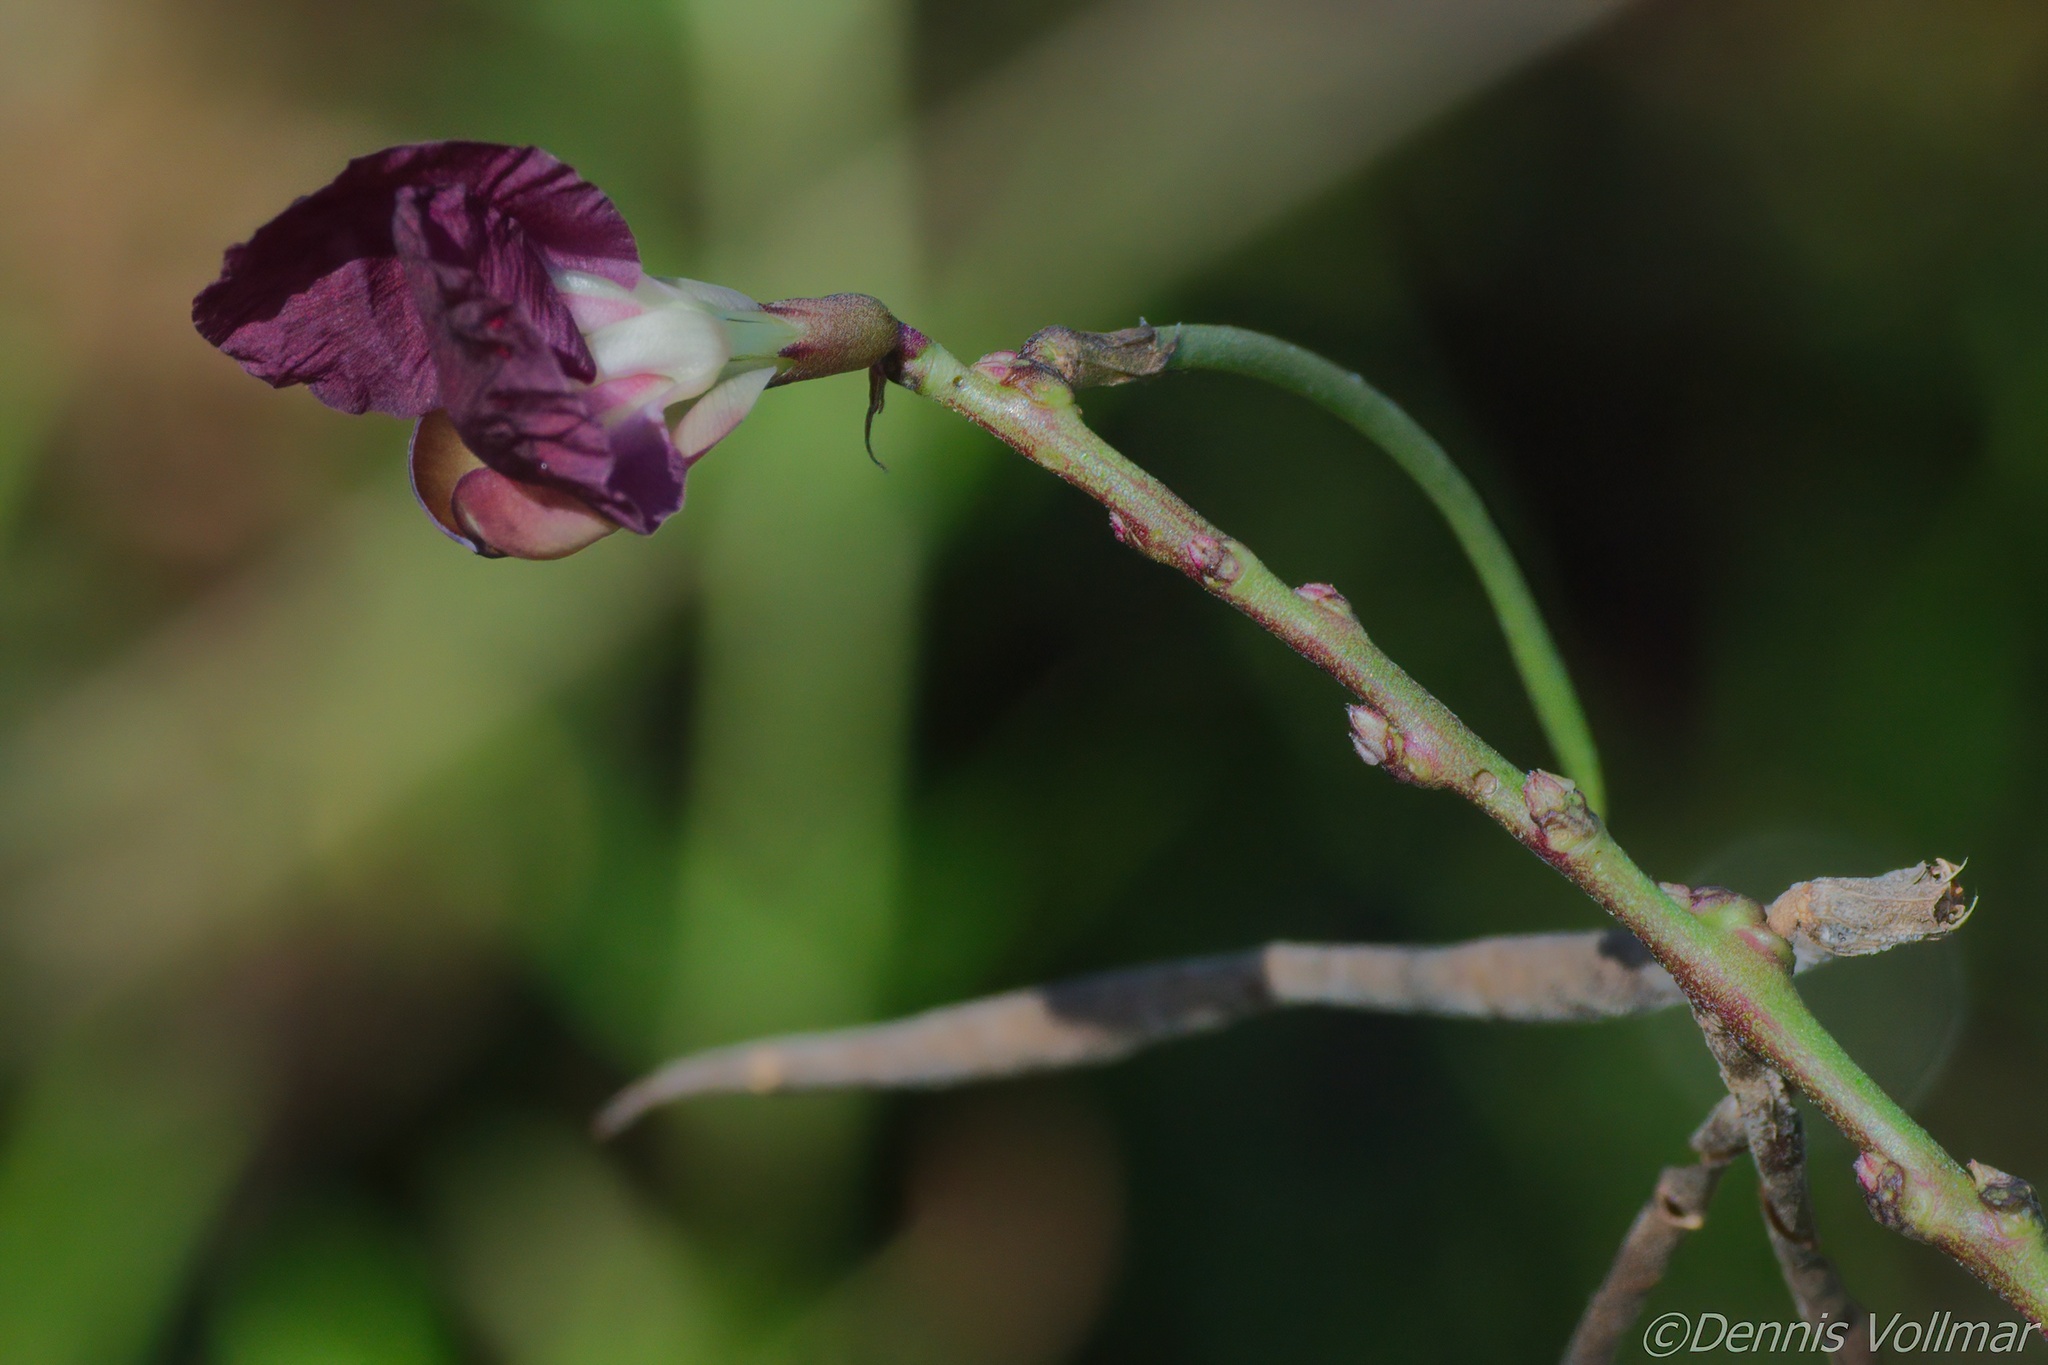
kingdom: Plantae
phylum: Tracheophyta
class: Magnoliopsida
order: Fabales
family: Fabaceae
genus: Macroptilium
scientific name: Macroptilium lathyroides
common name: Wild bushbean
